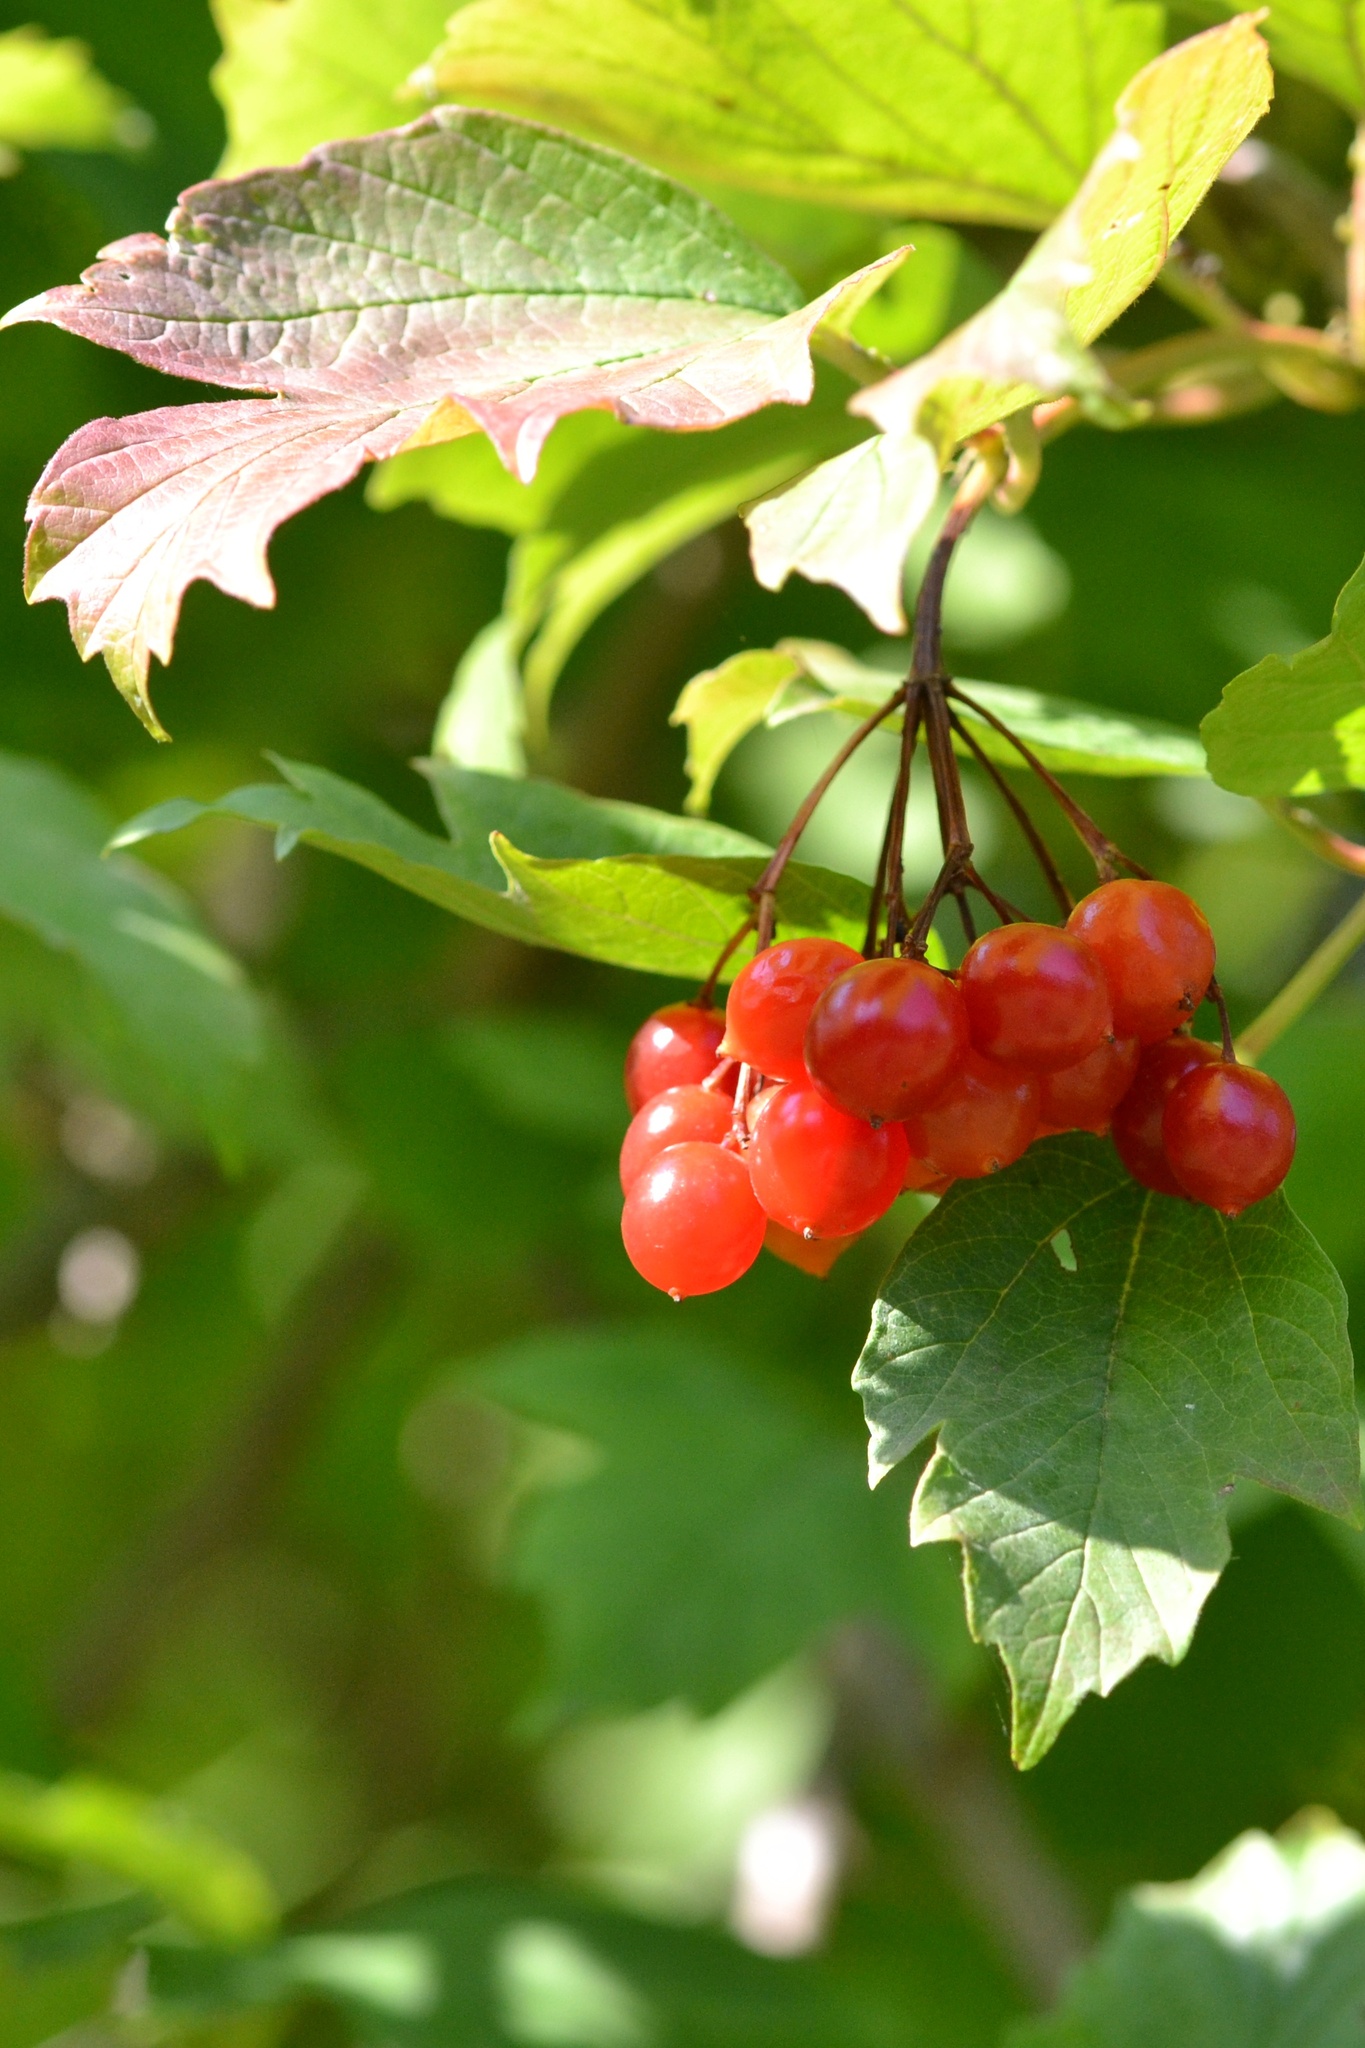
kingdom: Plantae
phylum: Tracheophyta
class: Magnoliopsida
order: Dipsacales
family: Viburnaceae
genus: Viburnum
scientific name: Viburnum opulus
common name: Guelder-rose
